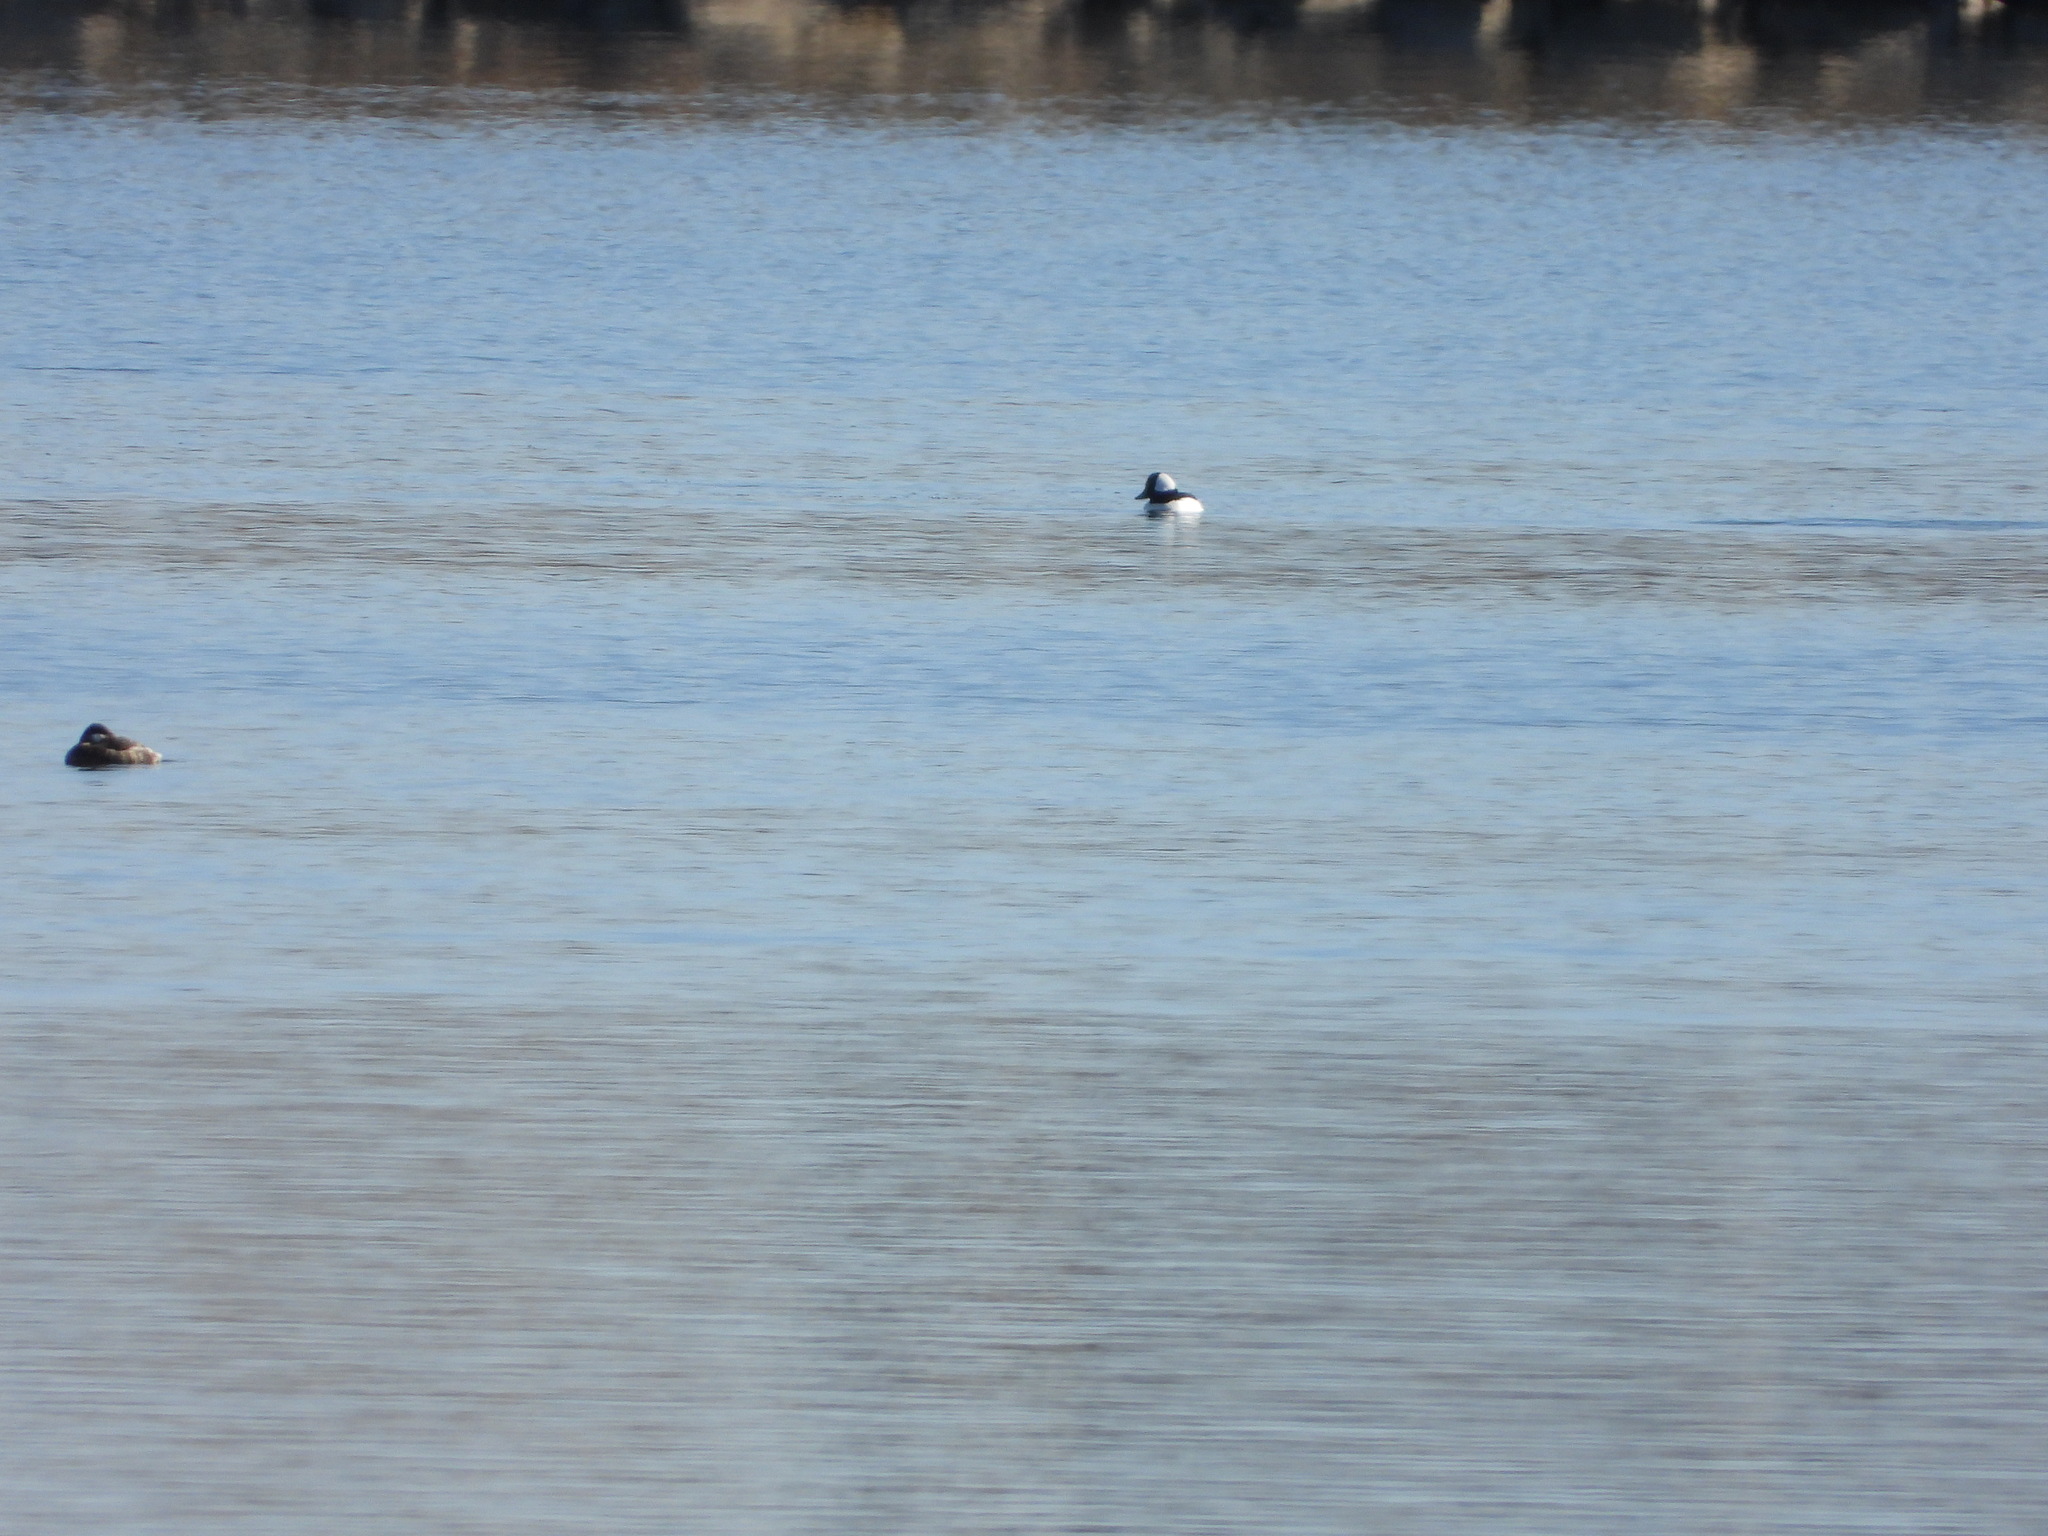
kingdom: Animalia
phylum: Chordata
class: Aves
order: Anseriformes
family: Anatidae
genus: Bucephala
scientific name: Bucephala albeola
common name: Bufflehead
